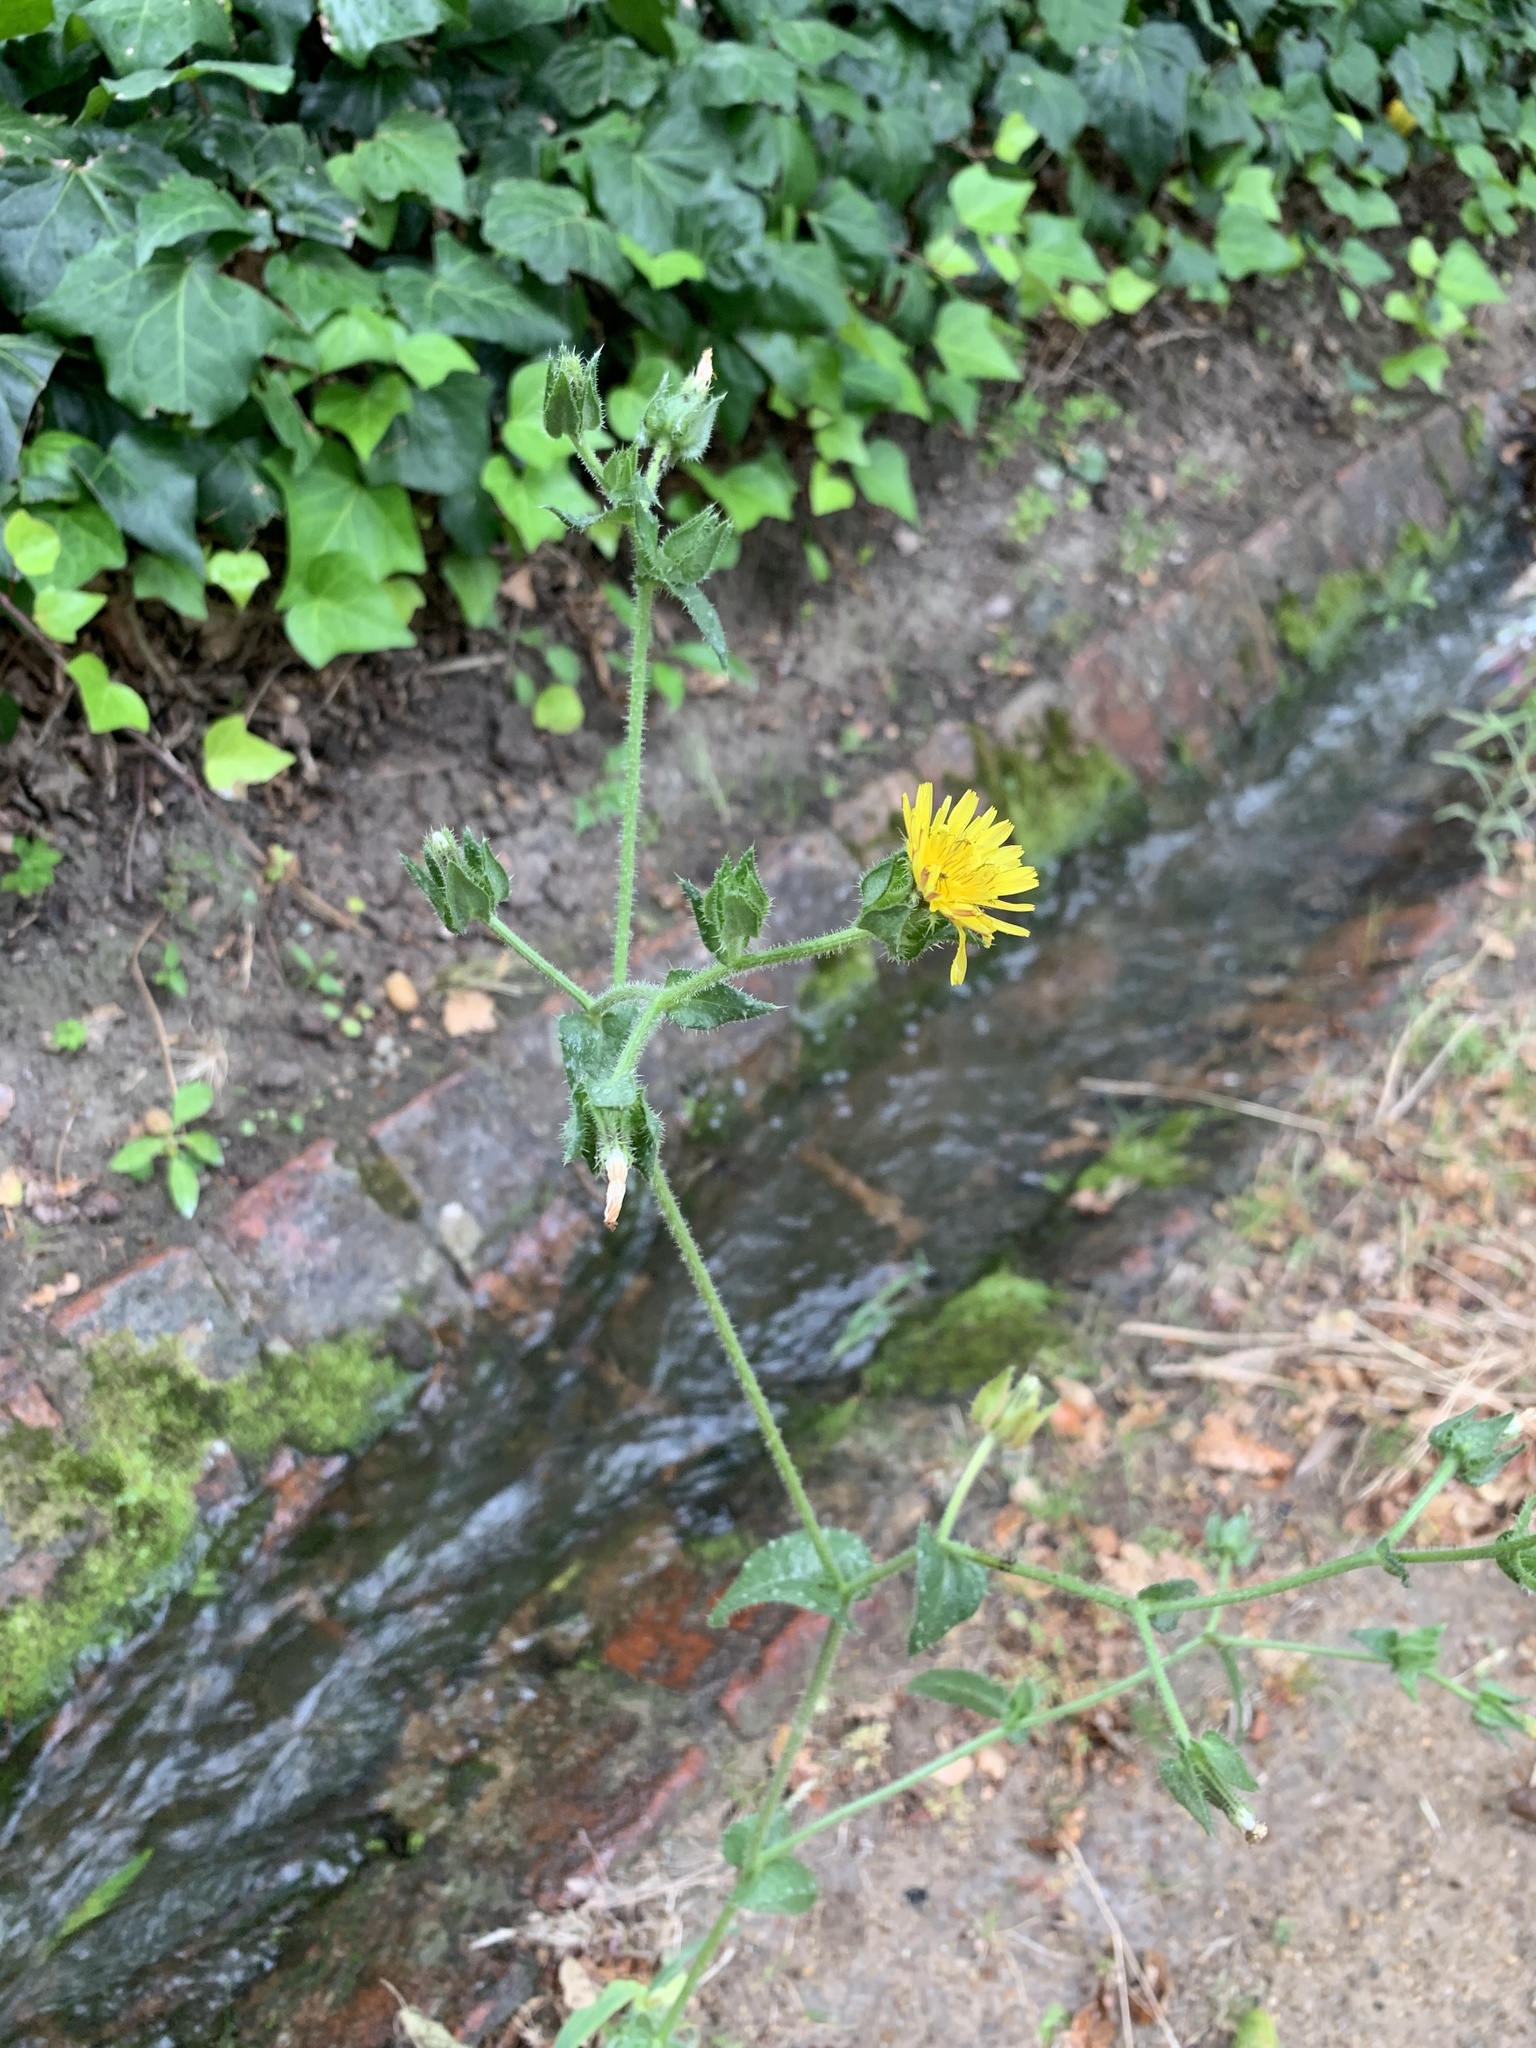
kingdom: Plantae
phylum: Tracheophyta
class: Magnoliopsida
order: Asterales
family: Asteraceae
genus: Helminthotheca
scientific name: Helminthotheca echioides
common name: Ox-tongue
